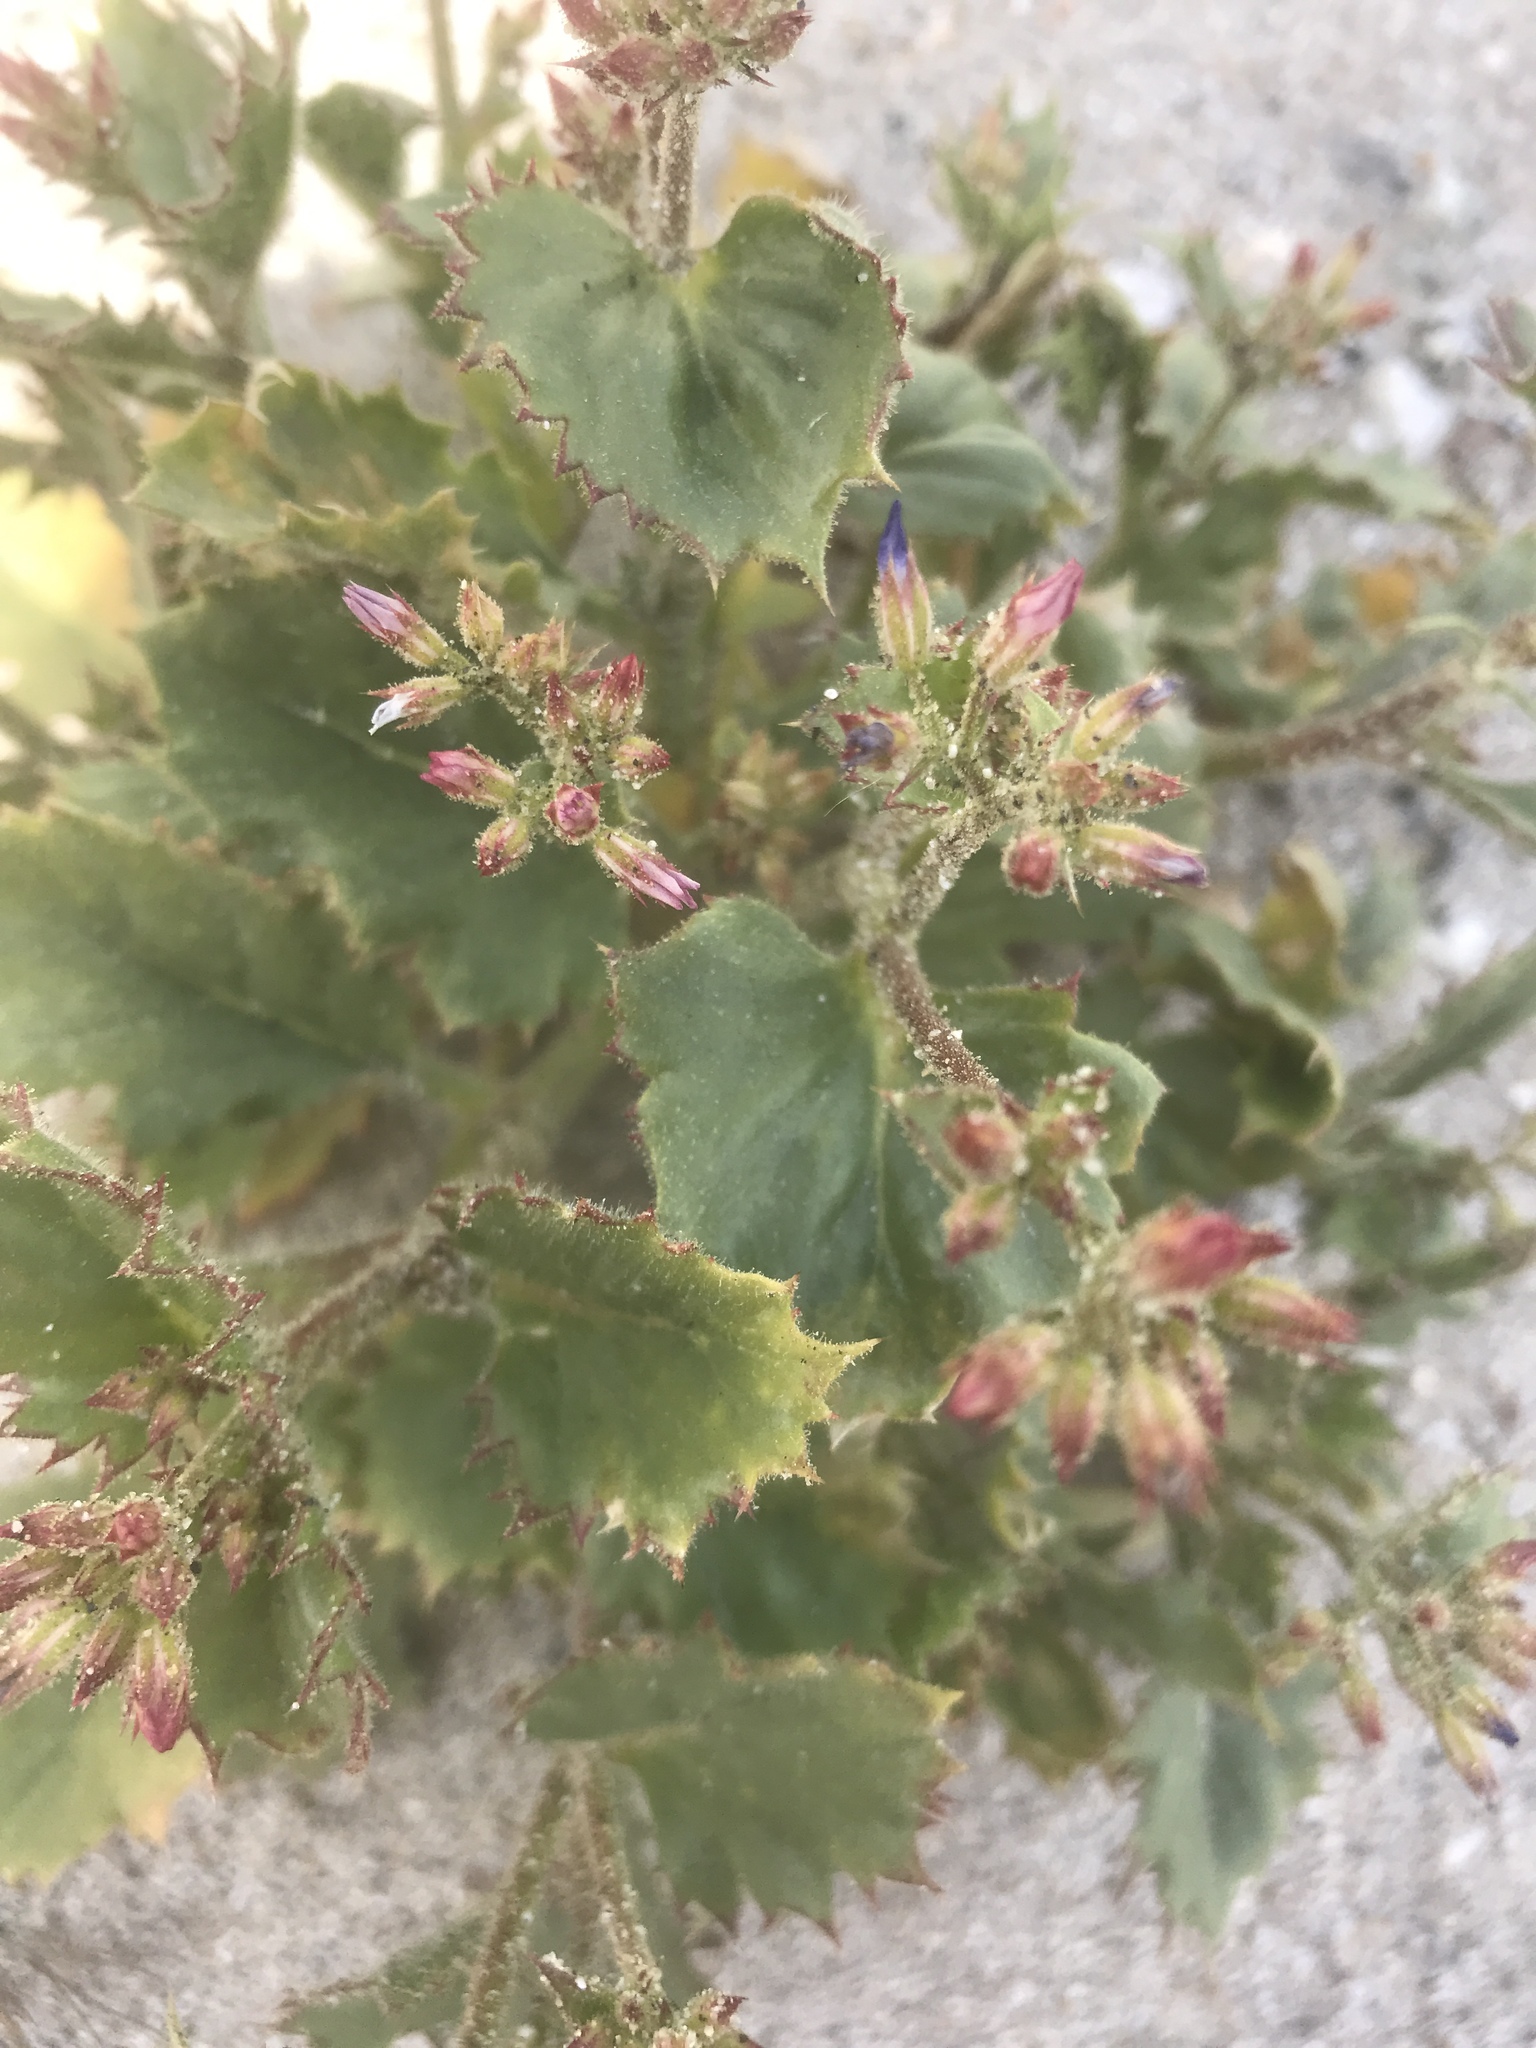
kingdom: Plantae
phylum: Tracheophyta
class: Magnoliopsida
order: Ericales
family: Polemoniaceae
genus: Aliciella
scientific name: Aliciella latifolia
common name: Broad-leaf gilia
